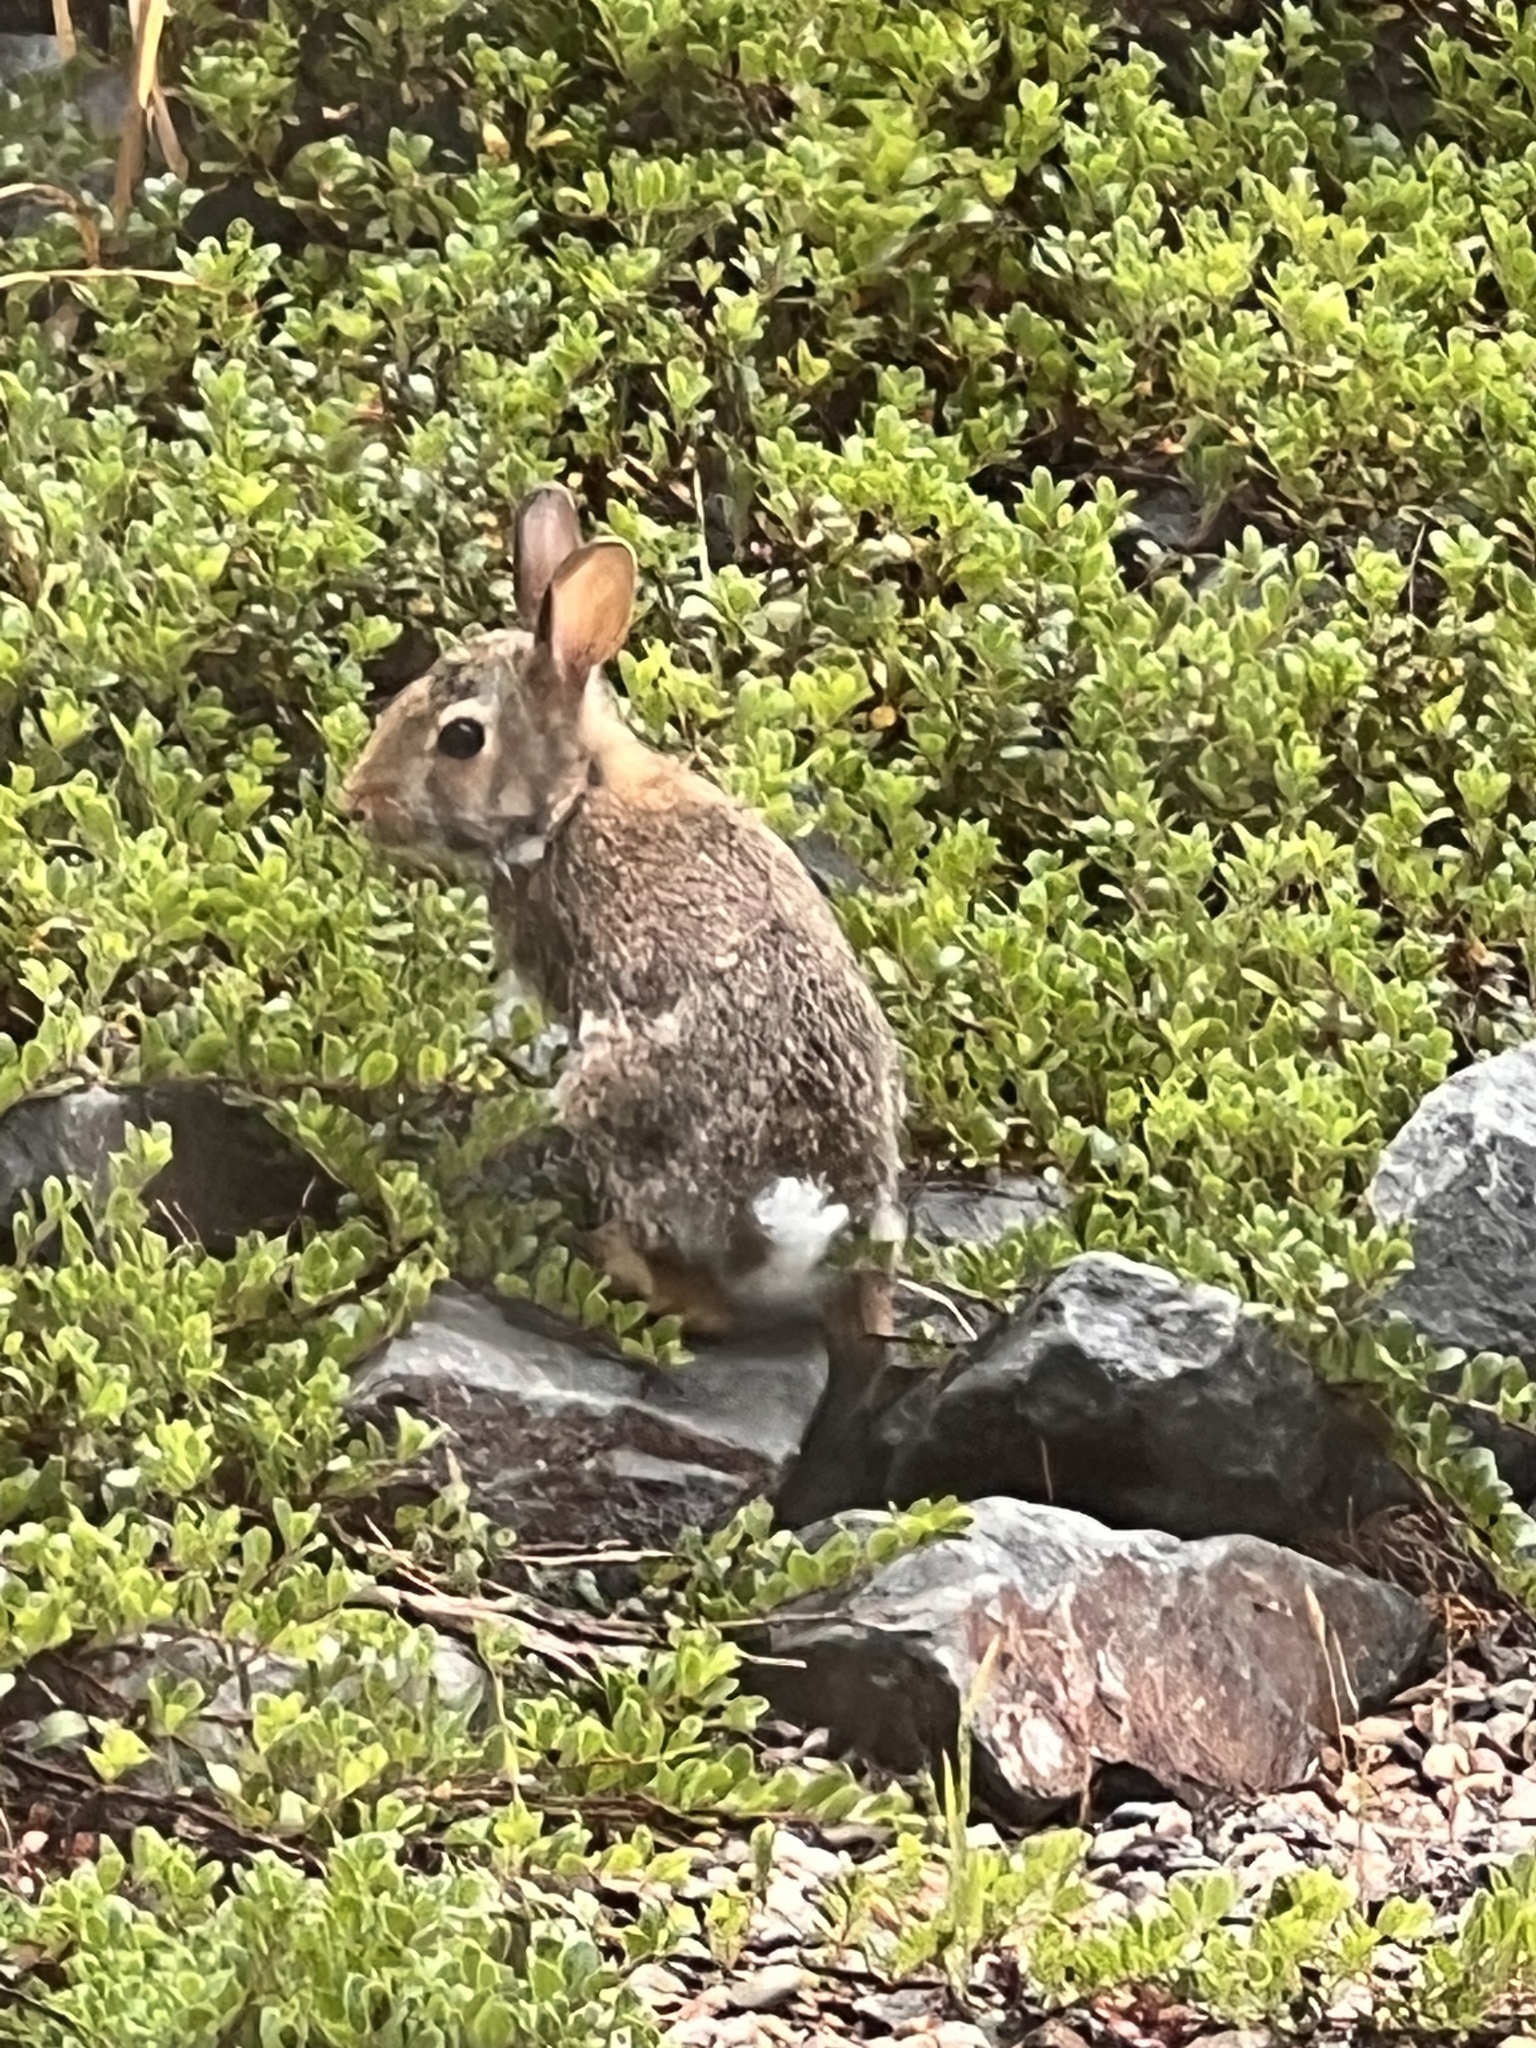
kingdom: Animalia
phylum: Chordata
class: Mammalia
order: Lagomorpha
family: Leporidae
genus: Sylvilagus
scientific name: Sylvilagus floridanus
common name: Eastern cottontail
